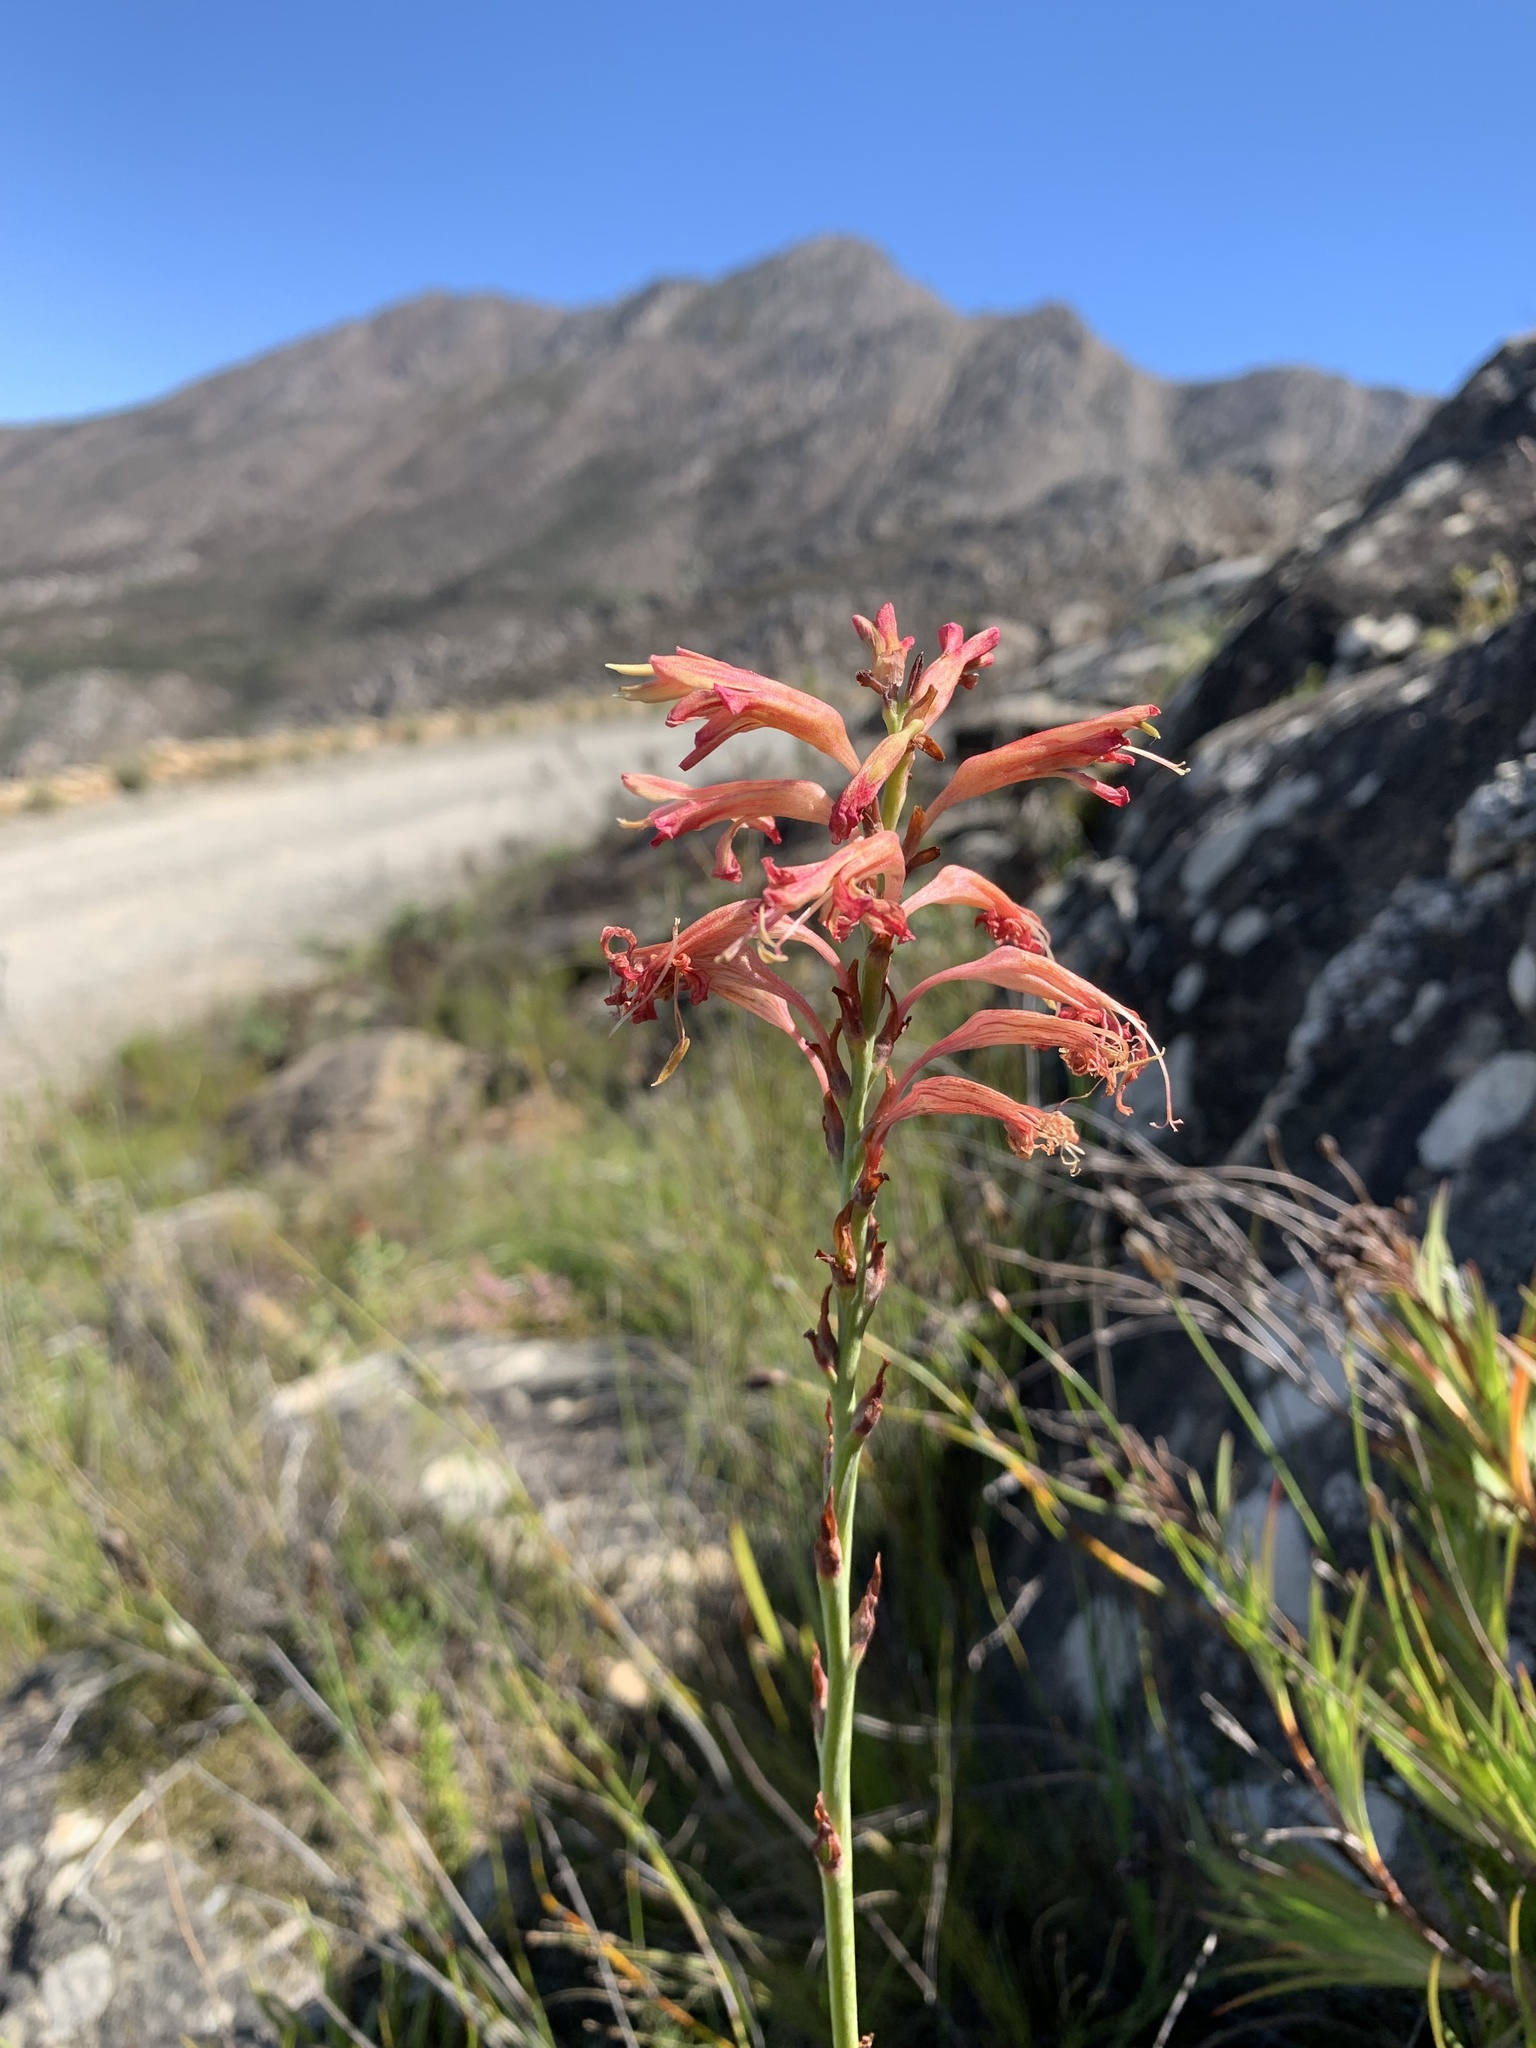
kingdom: Plantae
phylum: Tracheophyta
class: Liliopsida
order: Asparagales
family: Iridaceae
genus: Tritoniopsis
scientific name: Tritoniopsis antholyza
